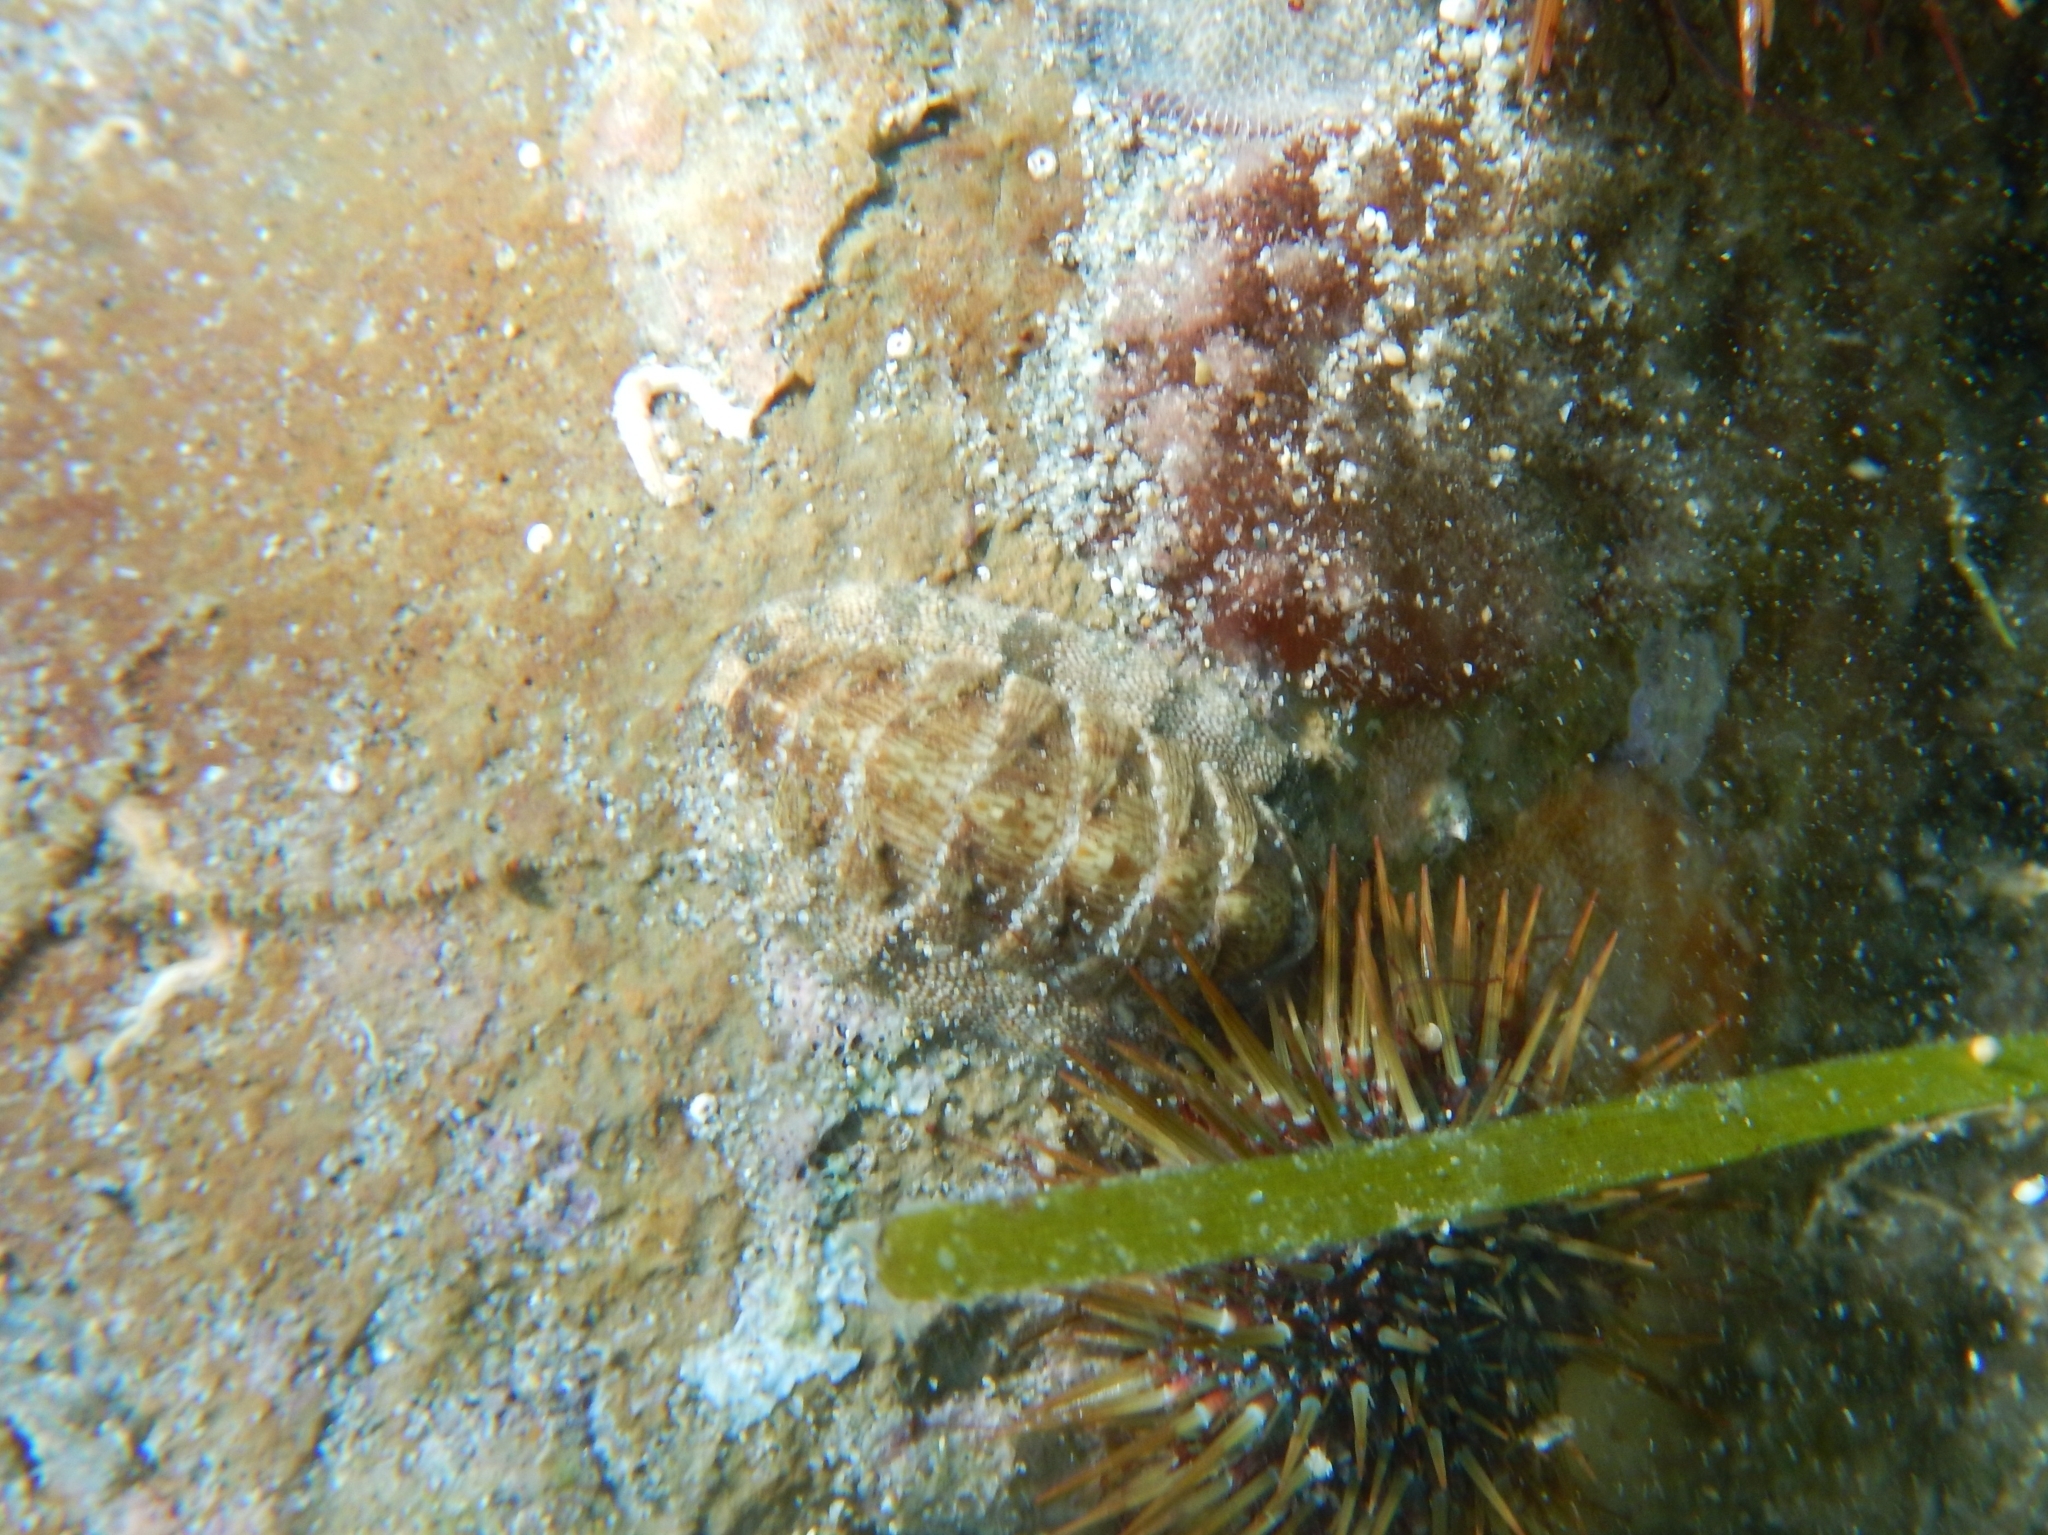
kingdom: Animalia
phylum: Mollusca
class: Polyplacophora
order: Chitonida
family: Chitonidae
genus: Rhyssoplax
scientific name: Rhyssoplax olivacea
